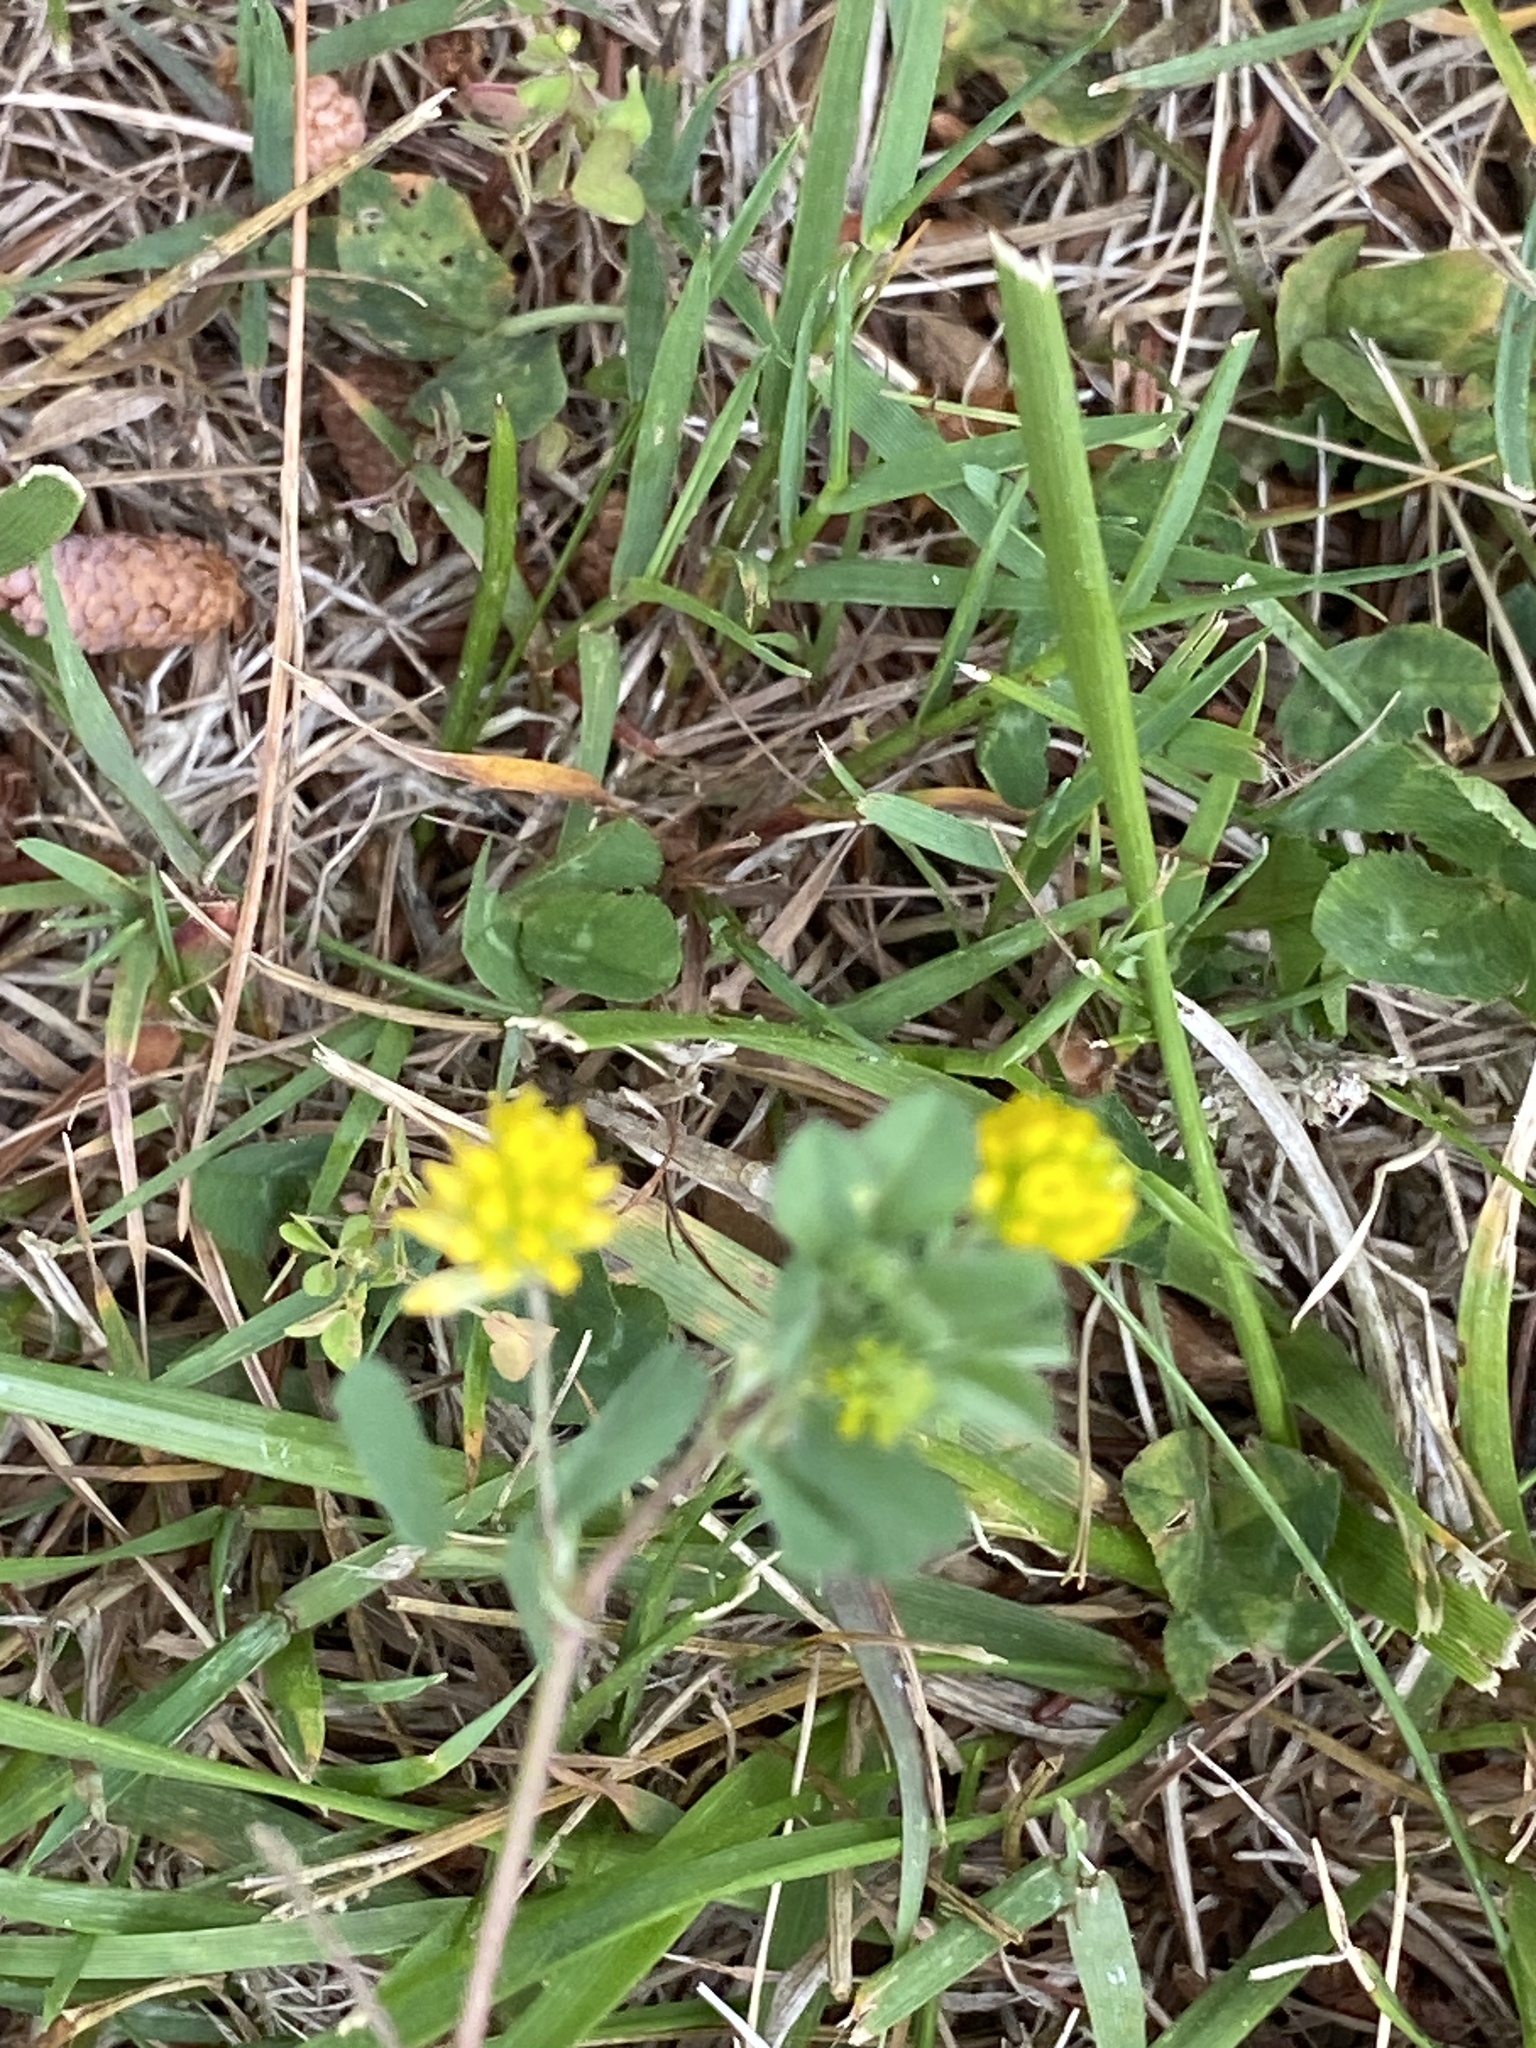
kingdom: Plantae
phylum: Tracheophyta
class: Magnoliopsida
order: Fabales
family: Fabaceae
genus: Trifolium
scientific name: Trifolium dubium
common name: Suckling clover
